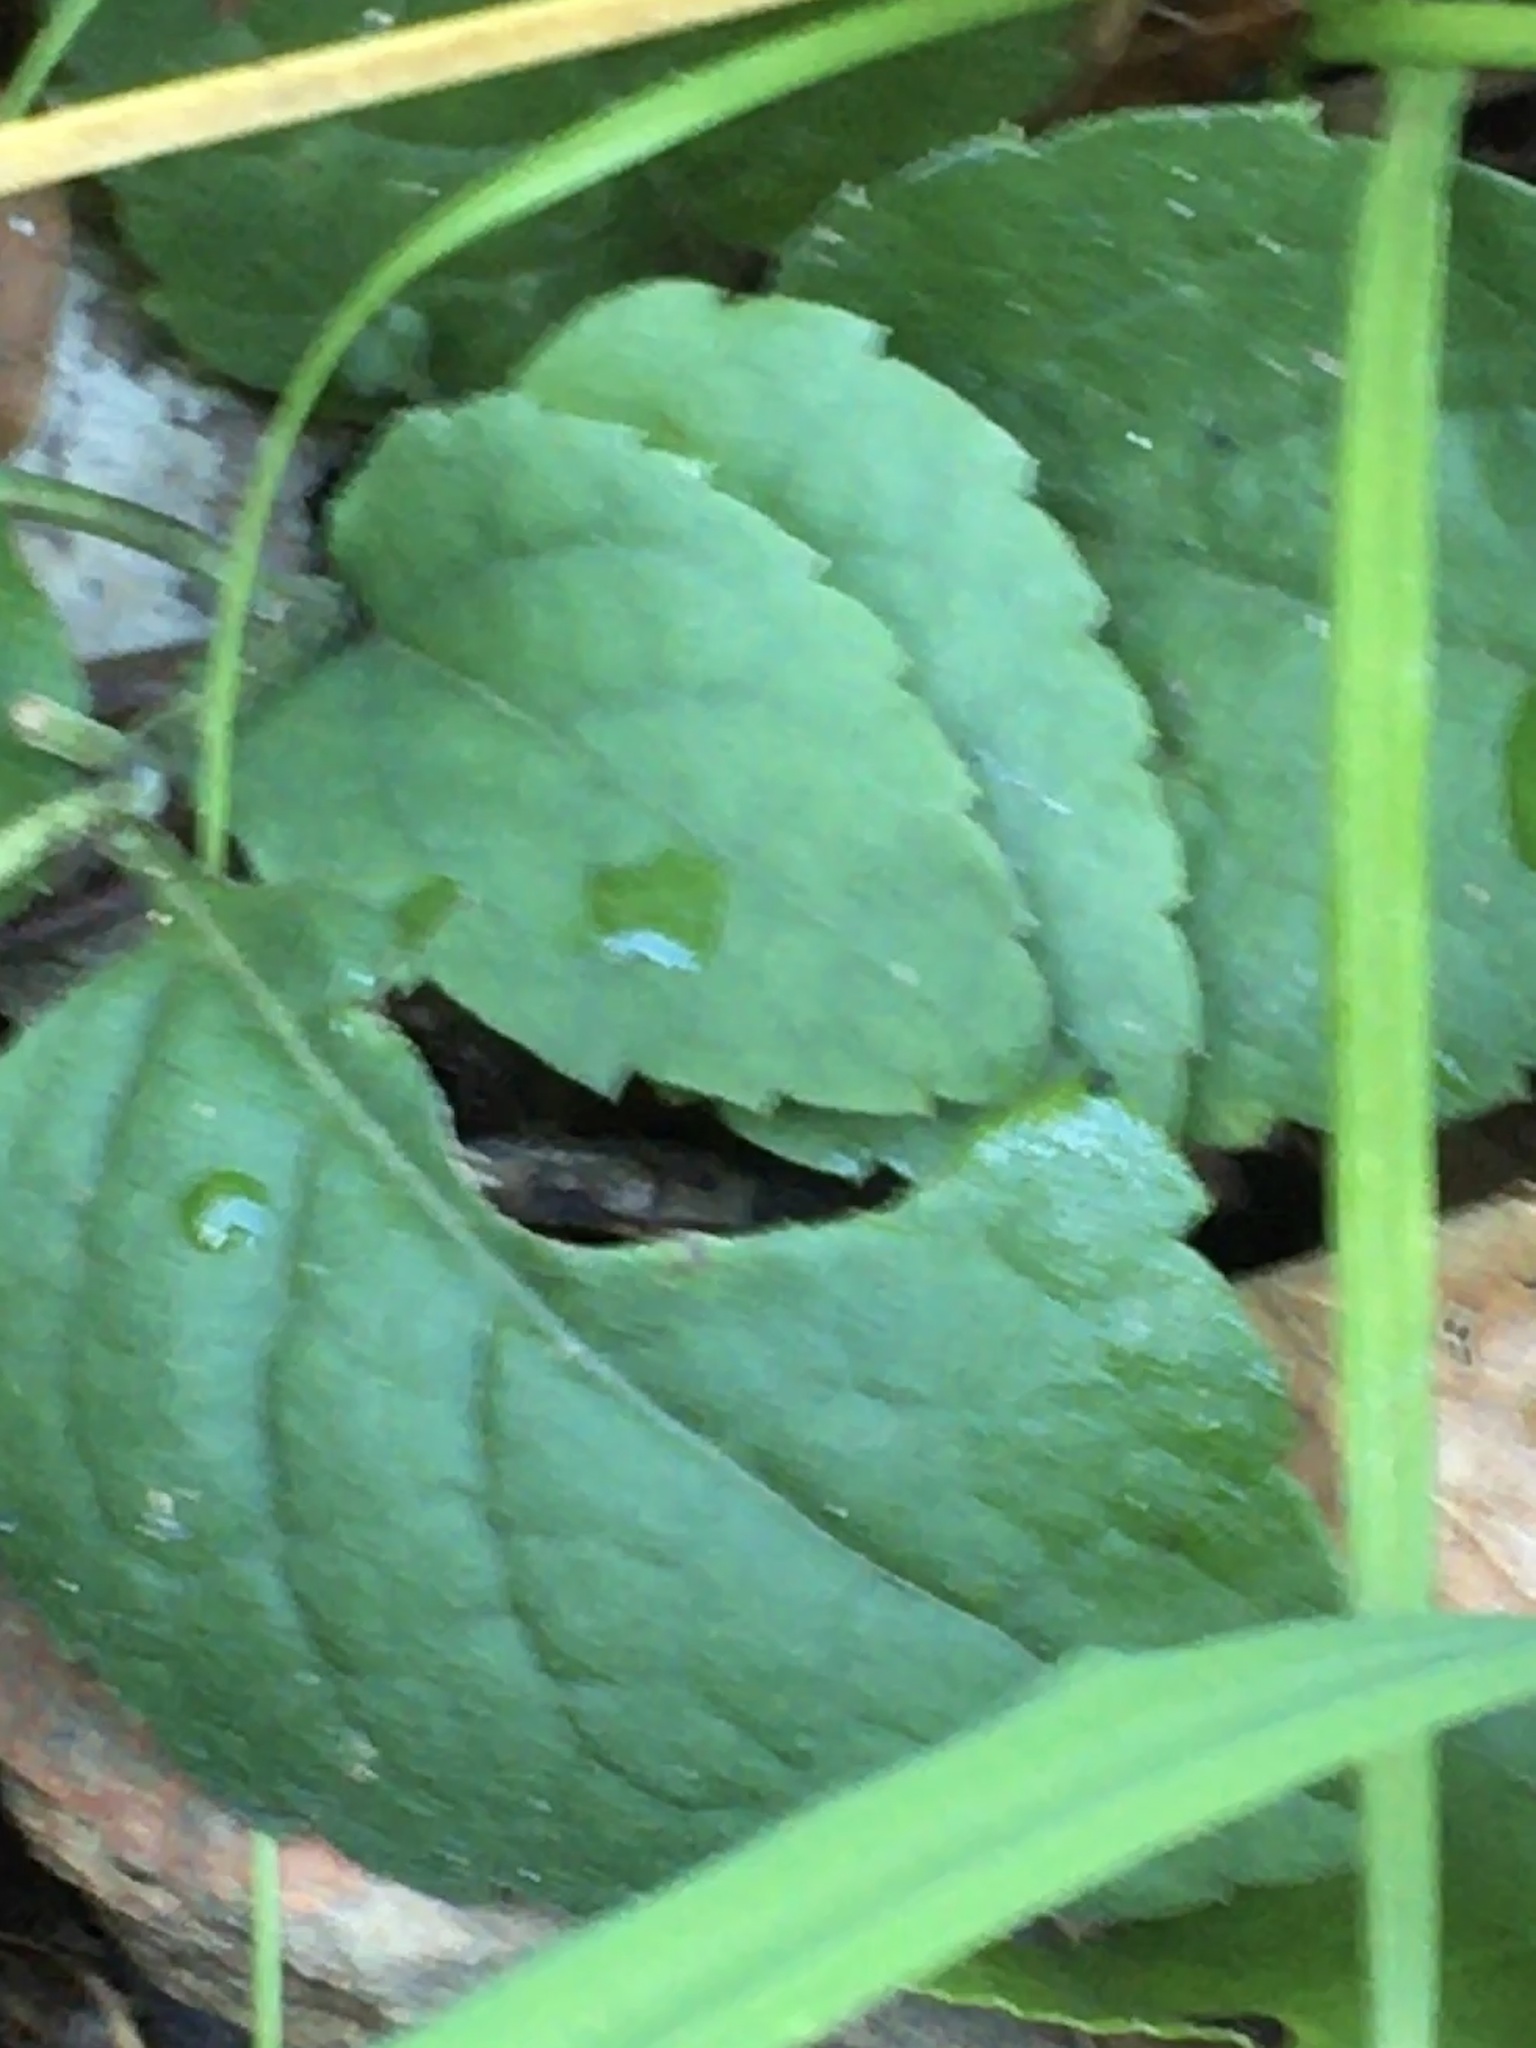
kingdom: Plantae
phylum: Tracheophyta
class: Magnoliopsida
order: Asterales
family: Asteraceae
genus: Eurybia
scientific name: Eurybia mirabilis
